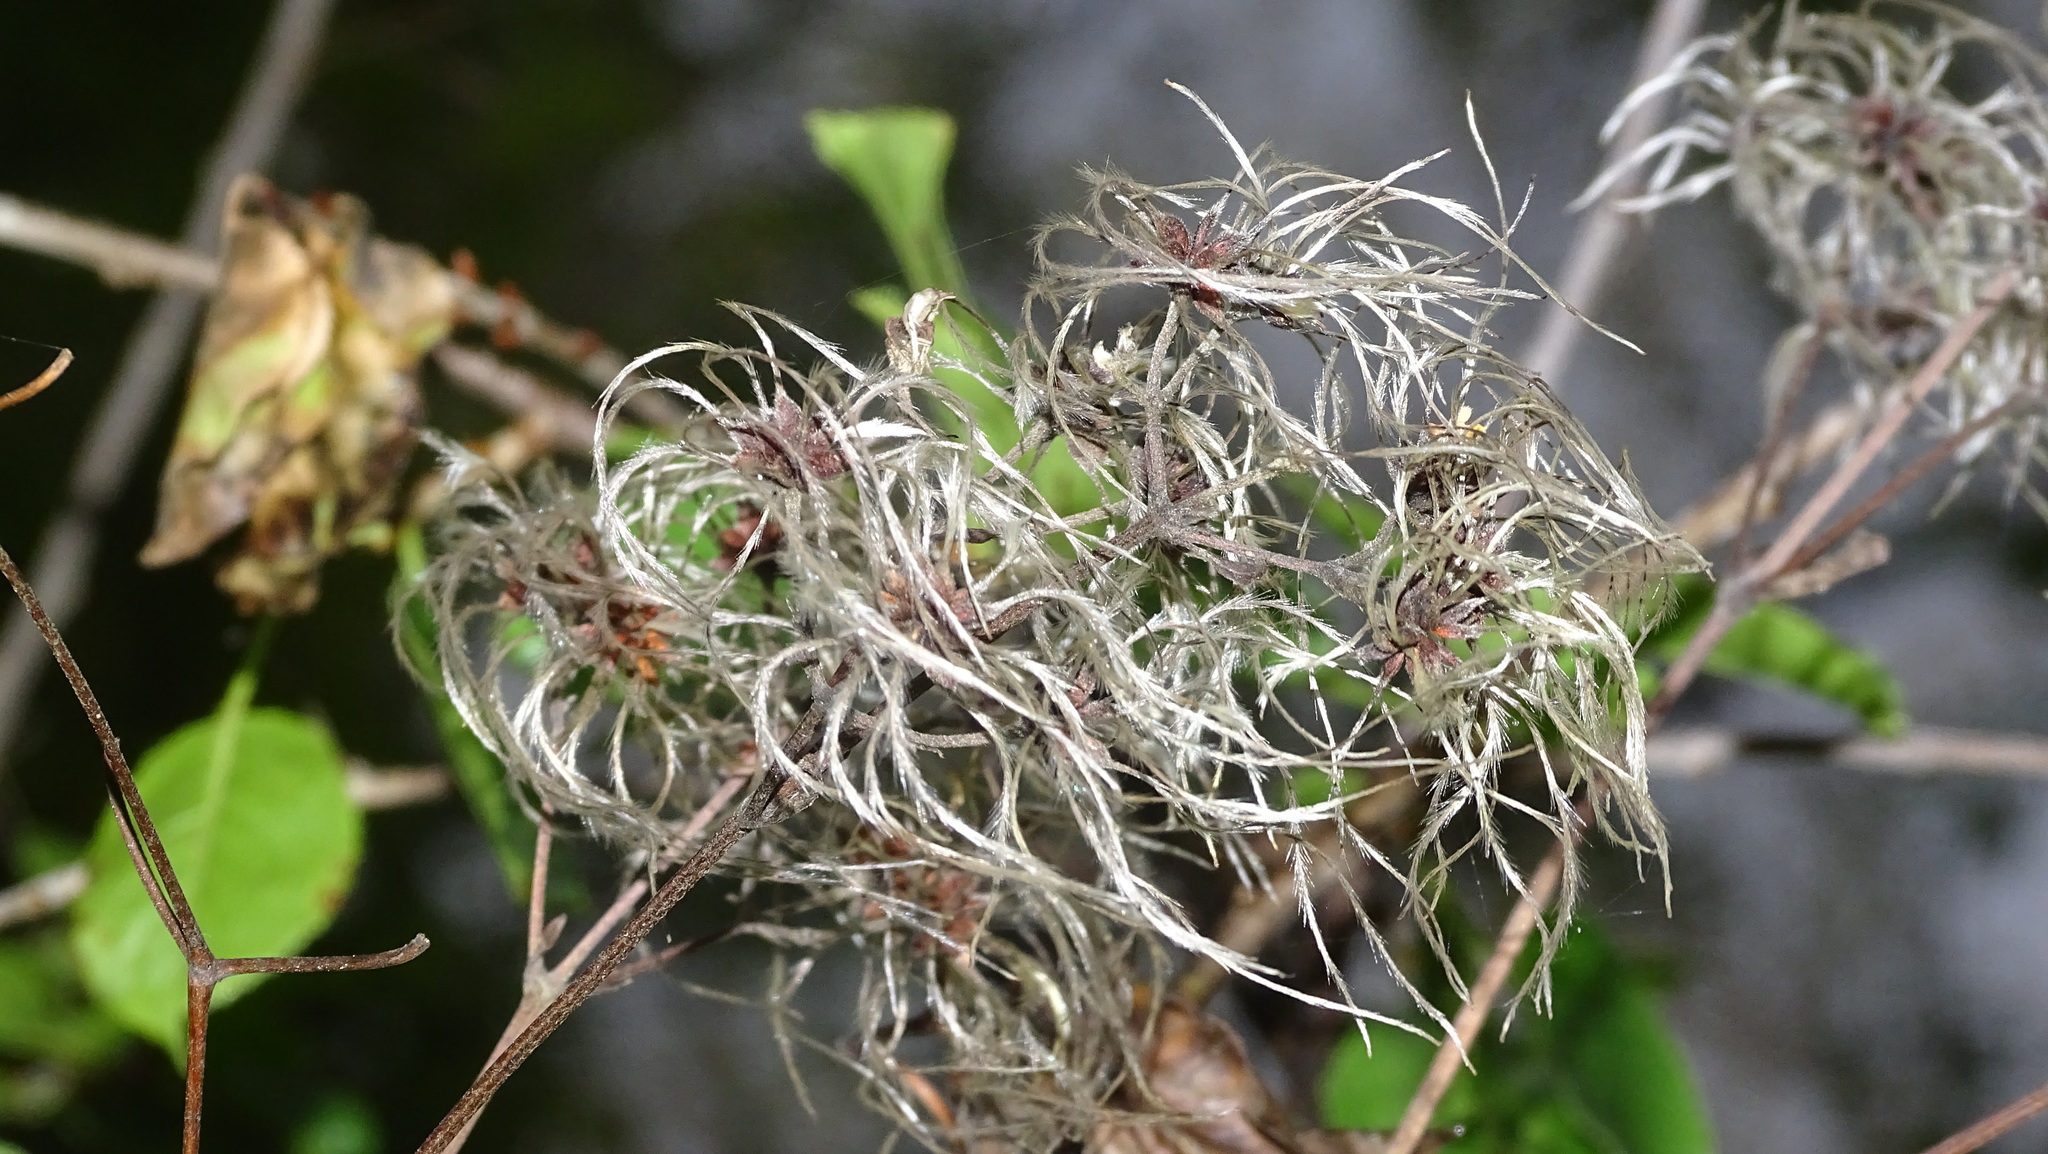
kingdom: Plantae
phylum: Tracheophyta
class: Magnoliopsida
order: Ranunculales
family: Ranunculaceae
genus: Clematis
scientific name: Clematis vitalba
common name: Evergreen clematis
